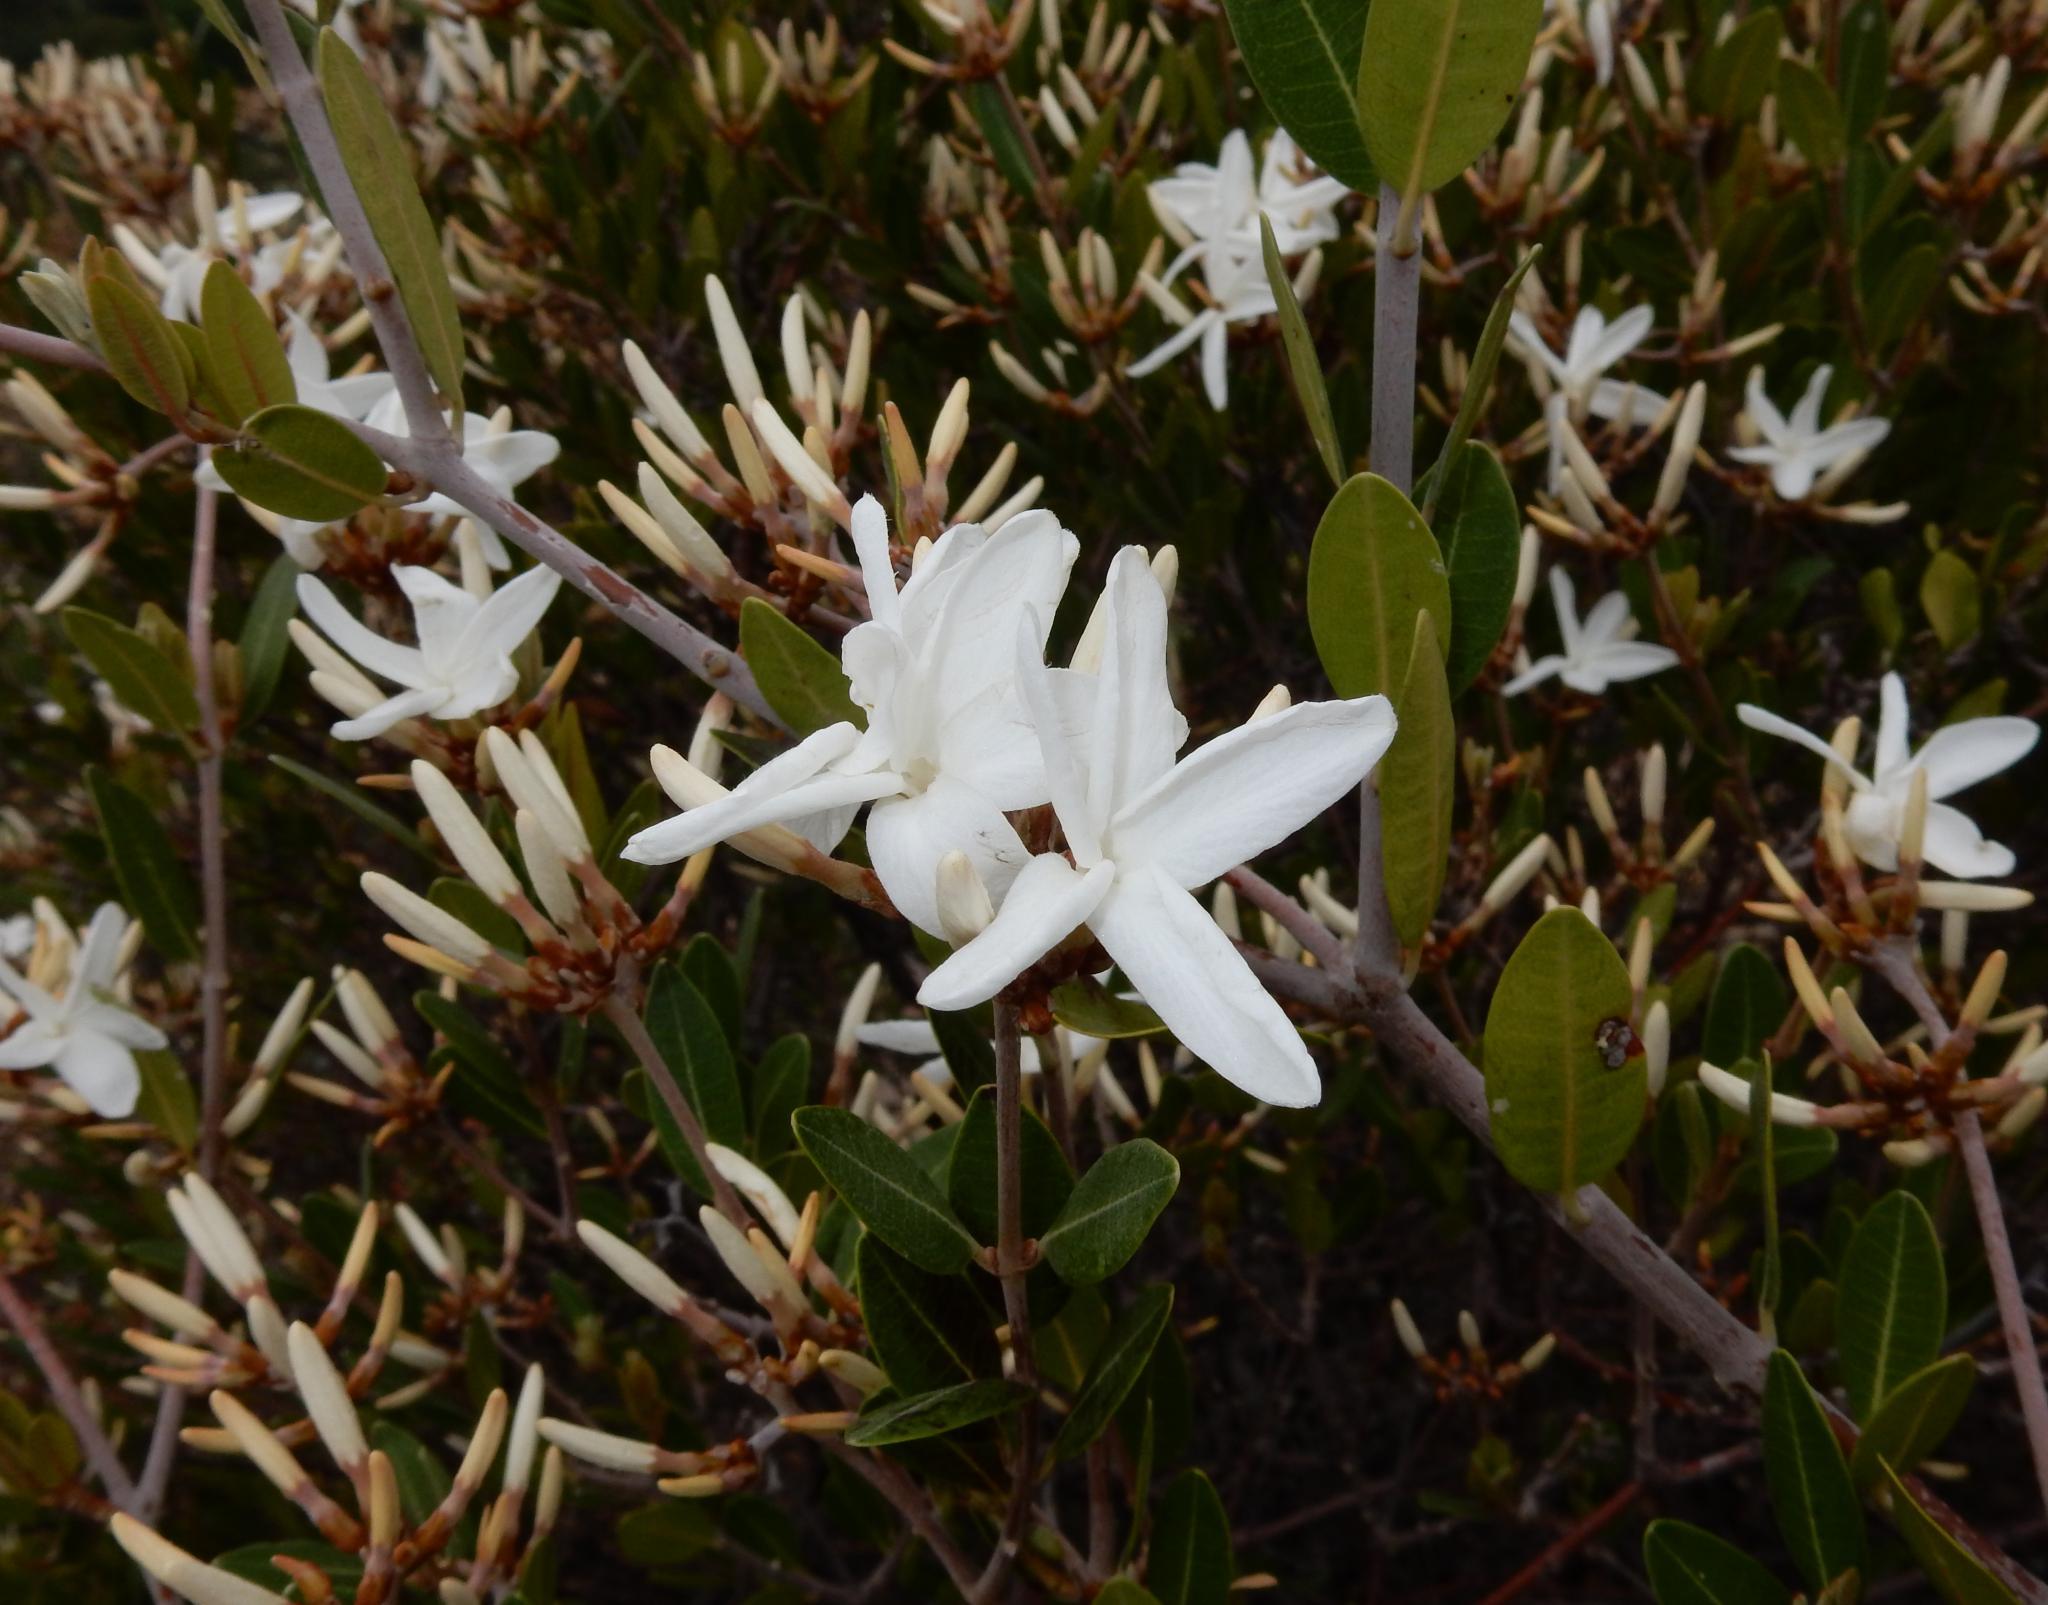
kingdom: Plantae
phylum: Tracheophyta
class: Magnoliopsida
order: Gentianales
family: Apocynaceae
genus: Ancylobothrys
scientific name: Ancylobothrys capensis
